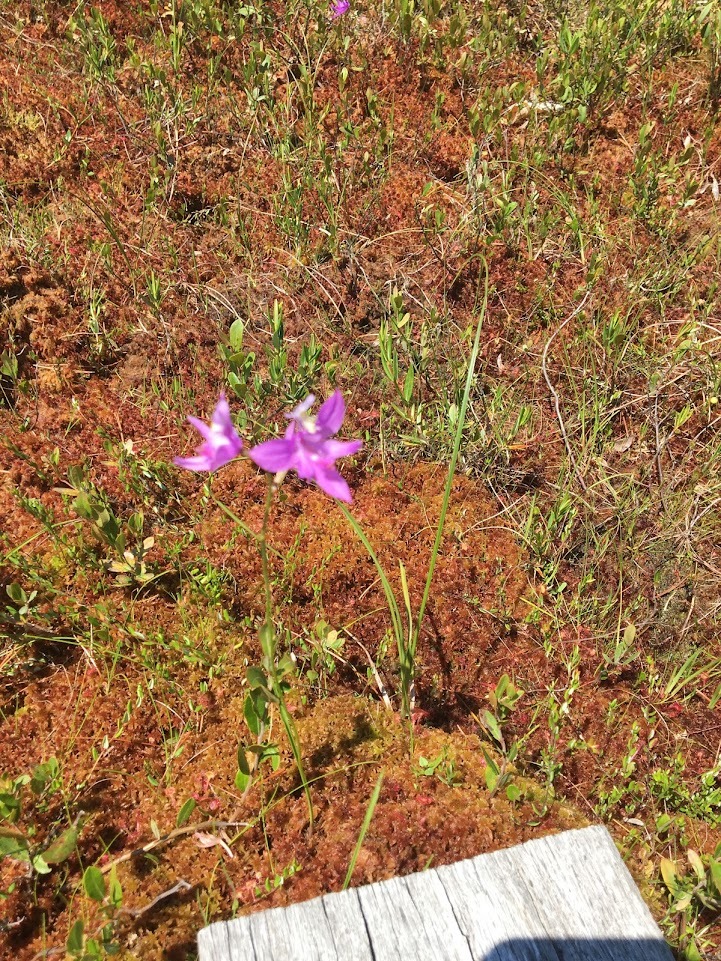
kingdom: Plantae
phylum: Tracheophyta
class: Liliopsida
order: Asparagales
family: Orchidaceae
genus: Calopogon
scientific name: Calopogon tuberosus
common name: Grass-pink
